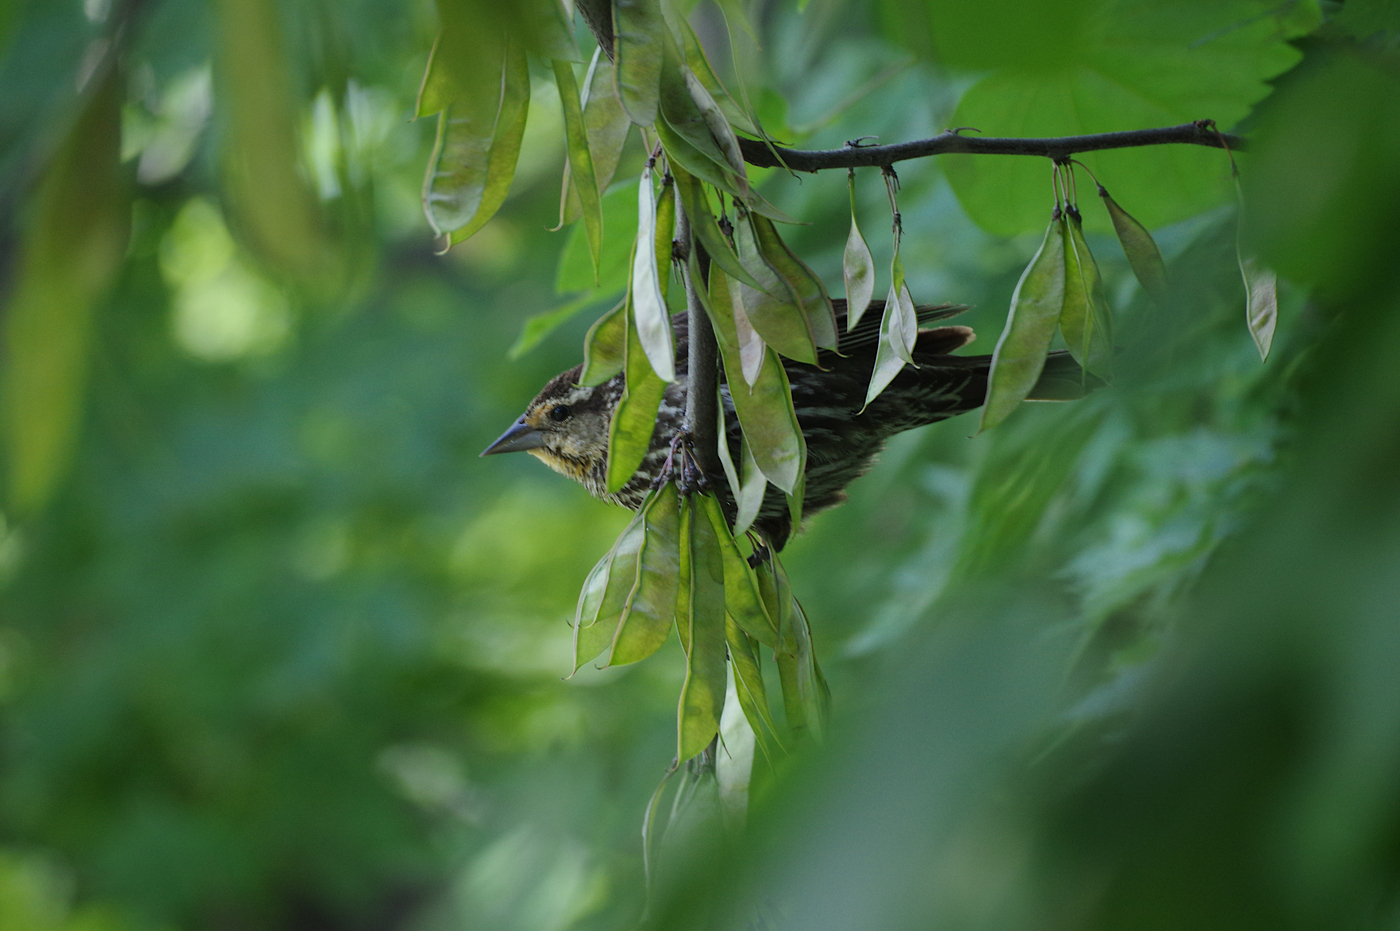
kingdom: Animalia
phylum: Chordata
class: Aves
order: Passeriformes
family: Icteridae
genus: Agelaius
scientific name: Agelaius phoeniceus
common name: Red-winged blackbird
